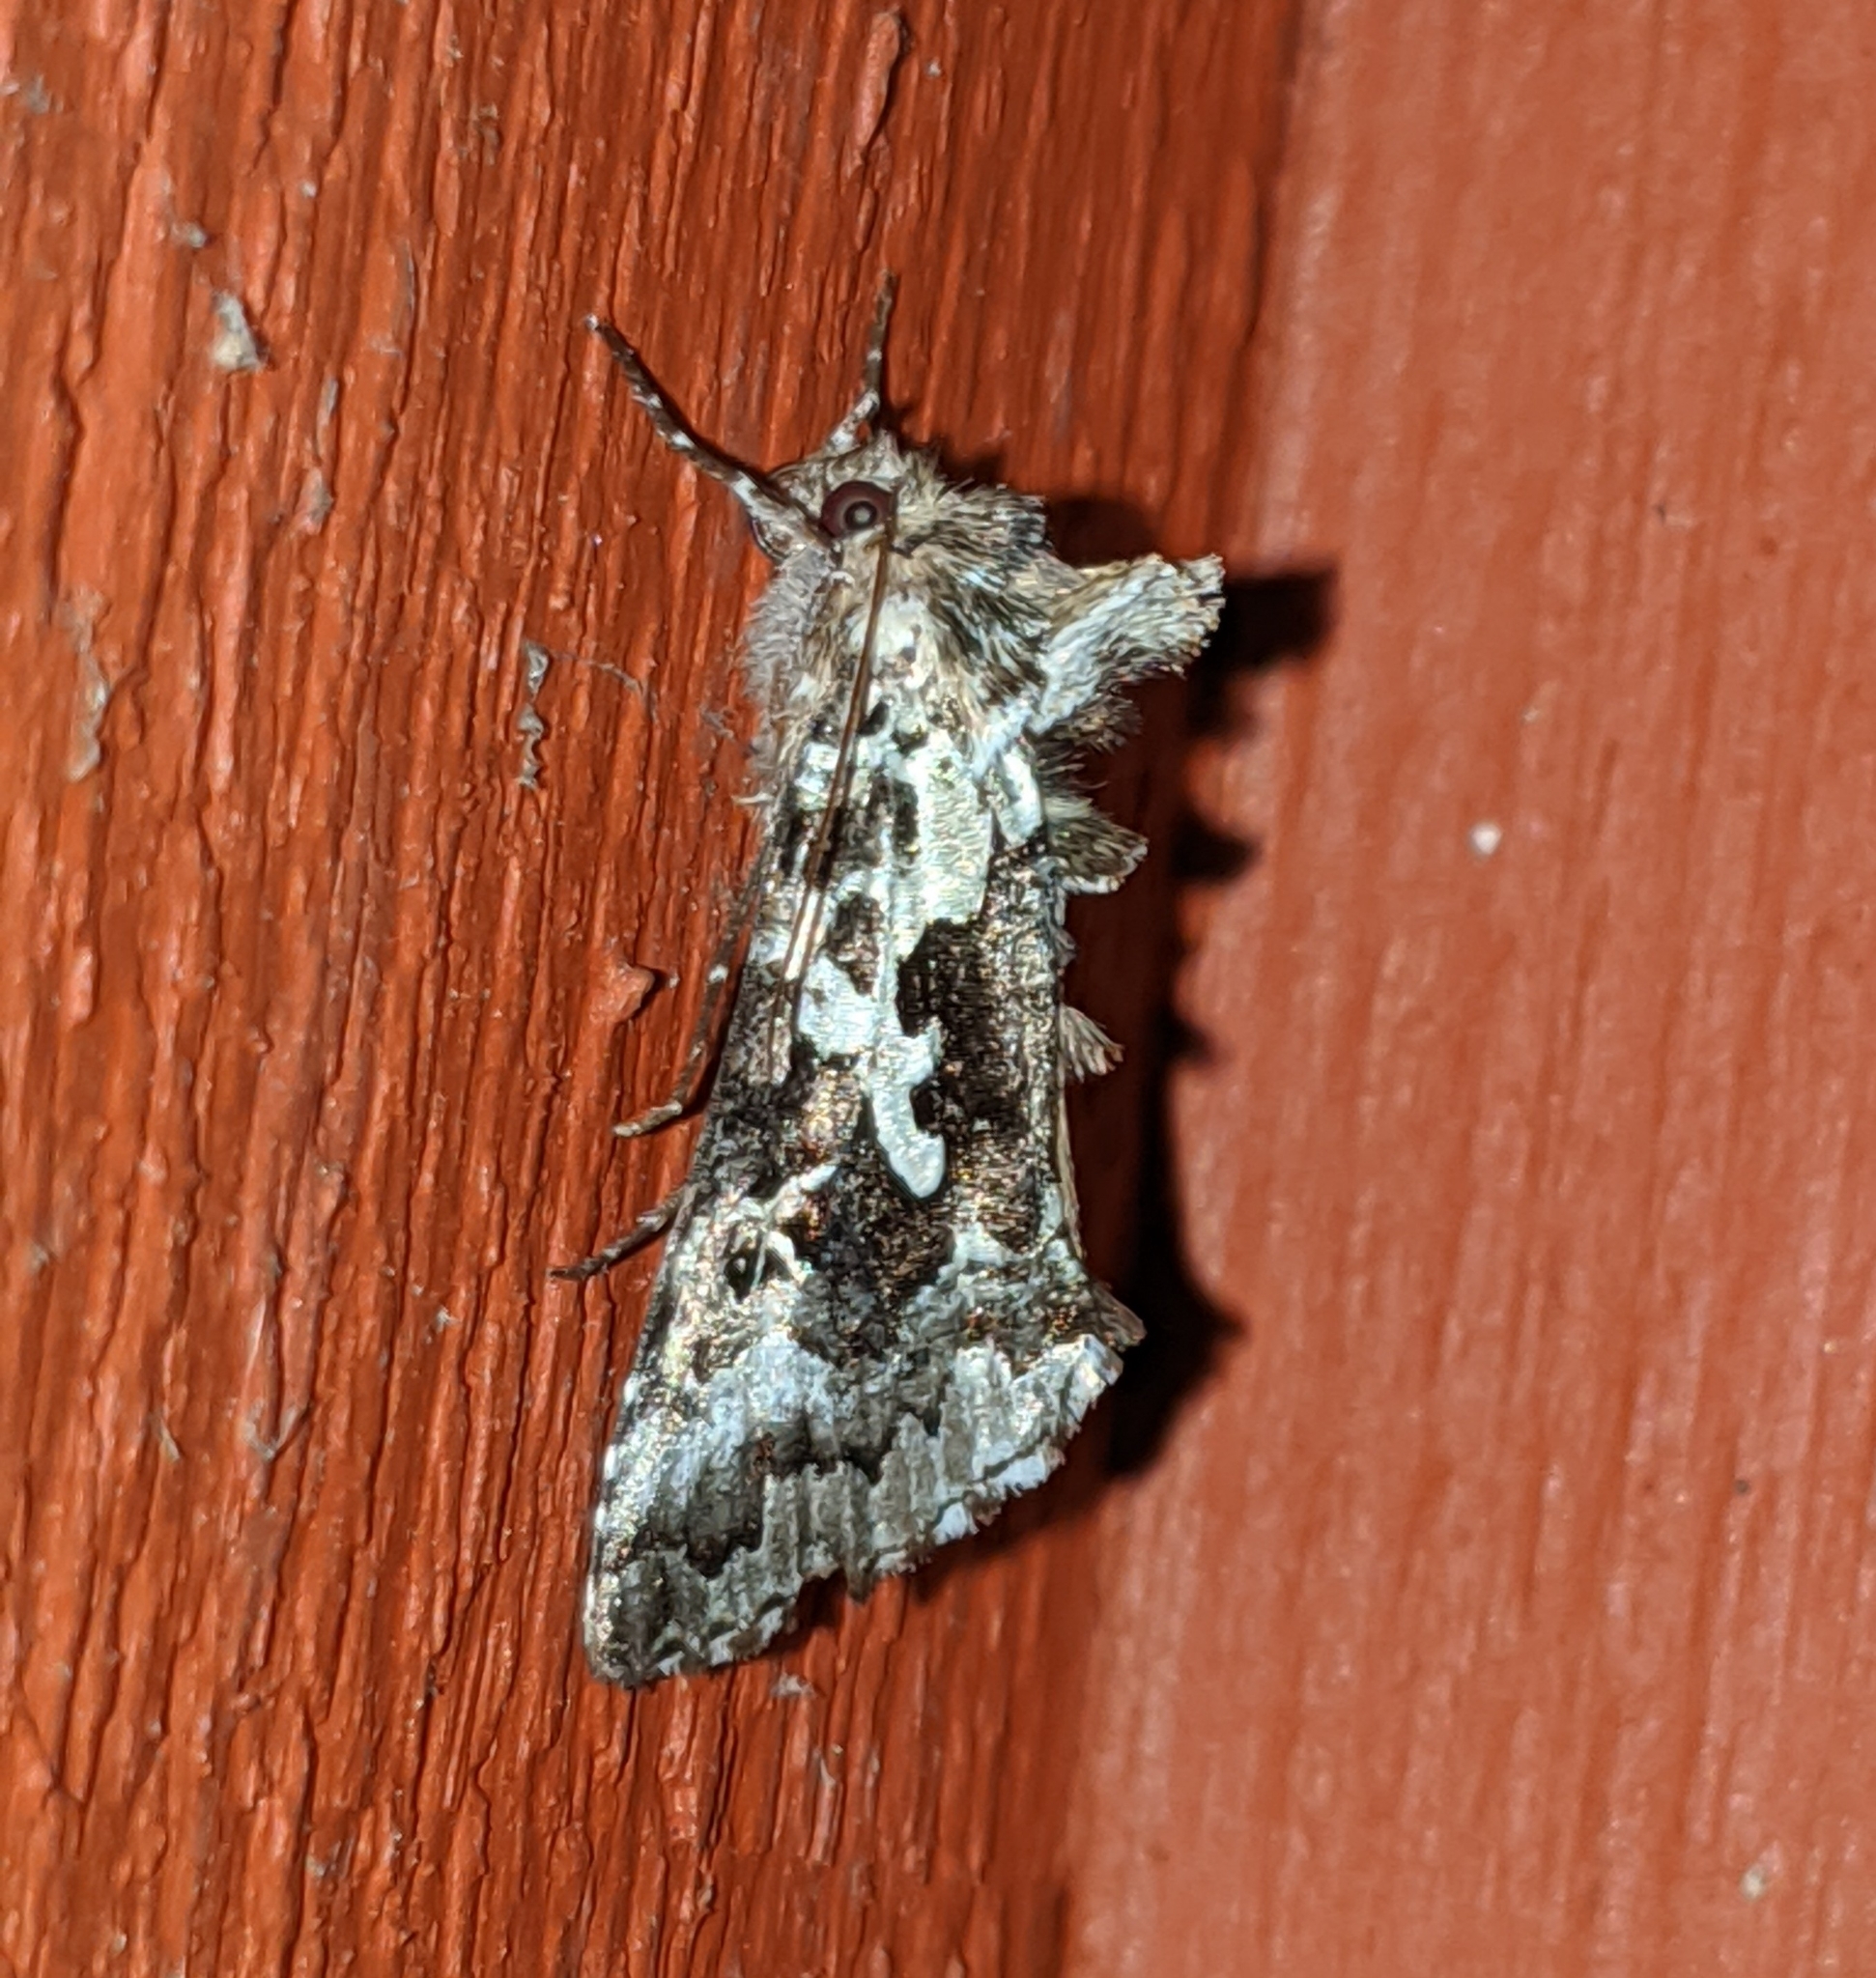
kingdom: Animalia
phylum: Arthropoda
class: Insecta
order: Lepidoptera
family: Noctuidae
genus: Syngrapha
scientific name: Syngrapha rectangula
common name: Angulated cutworm
